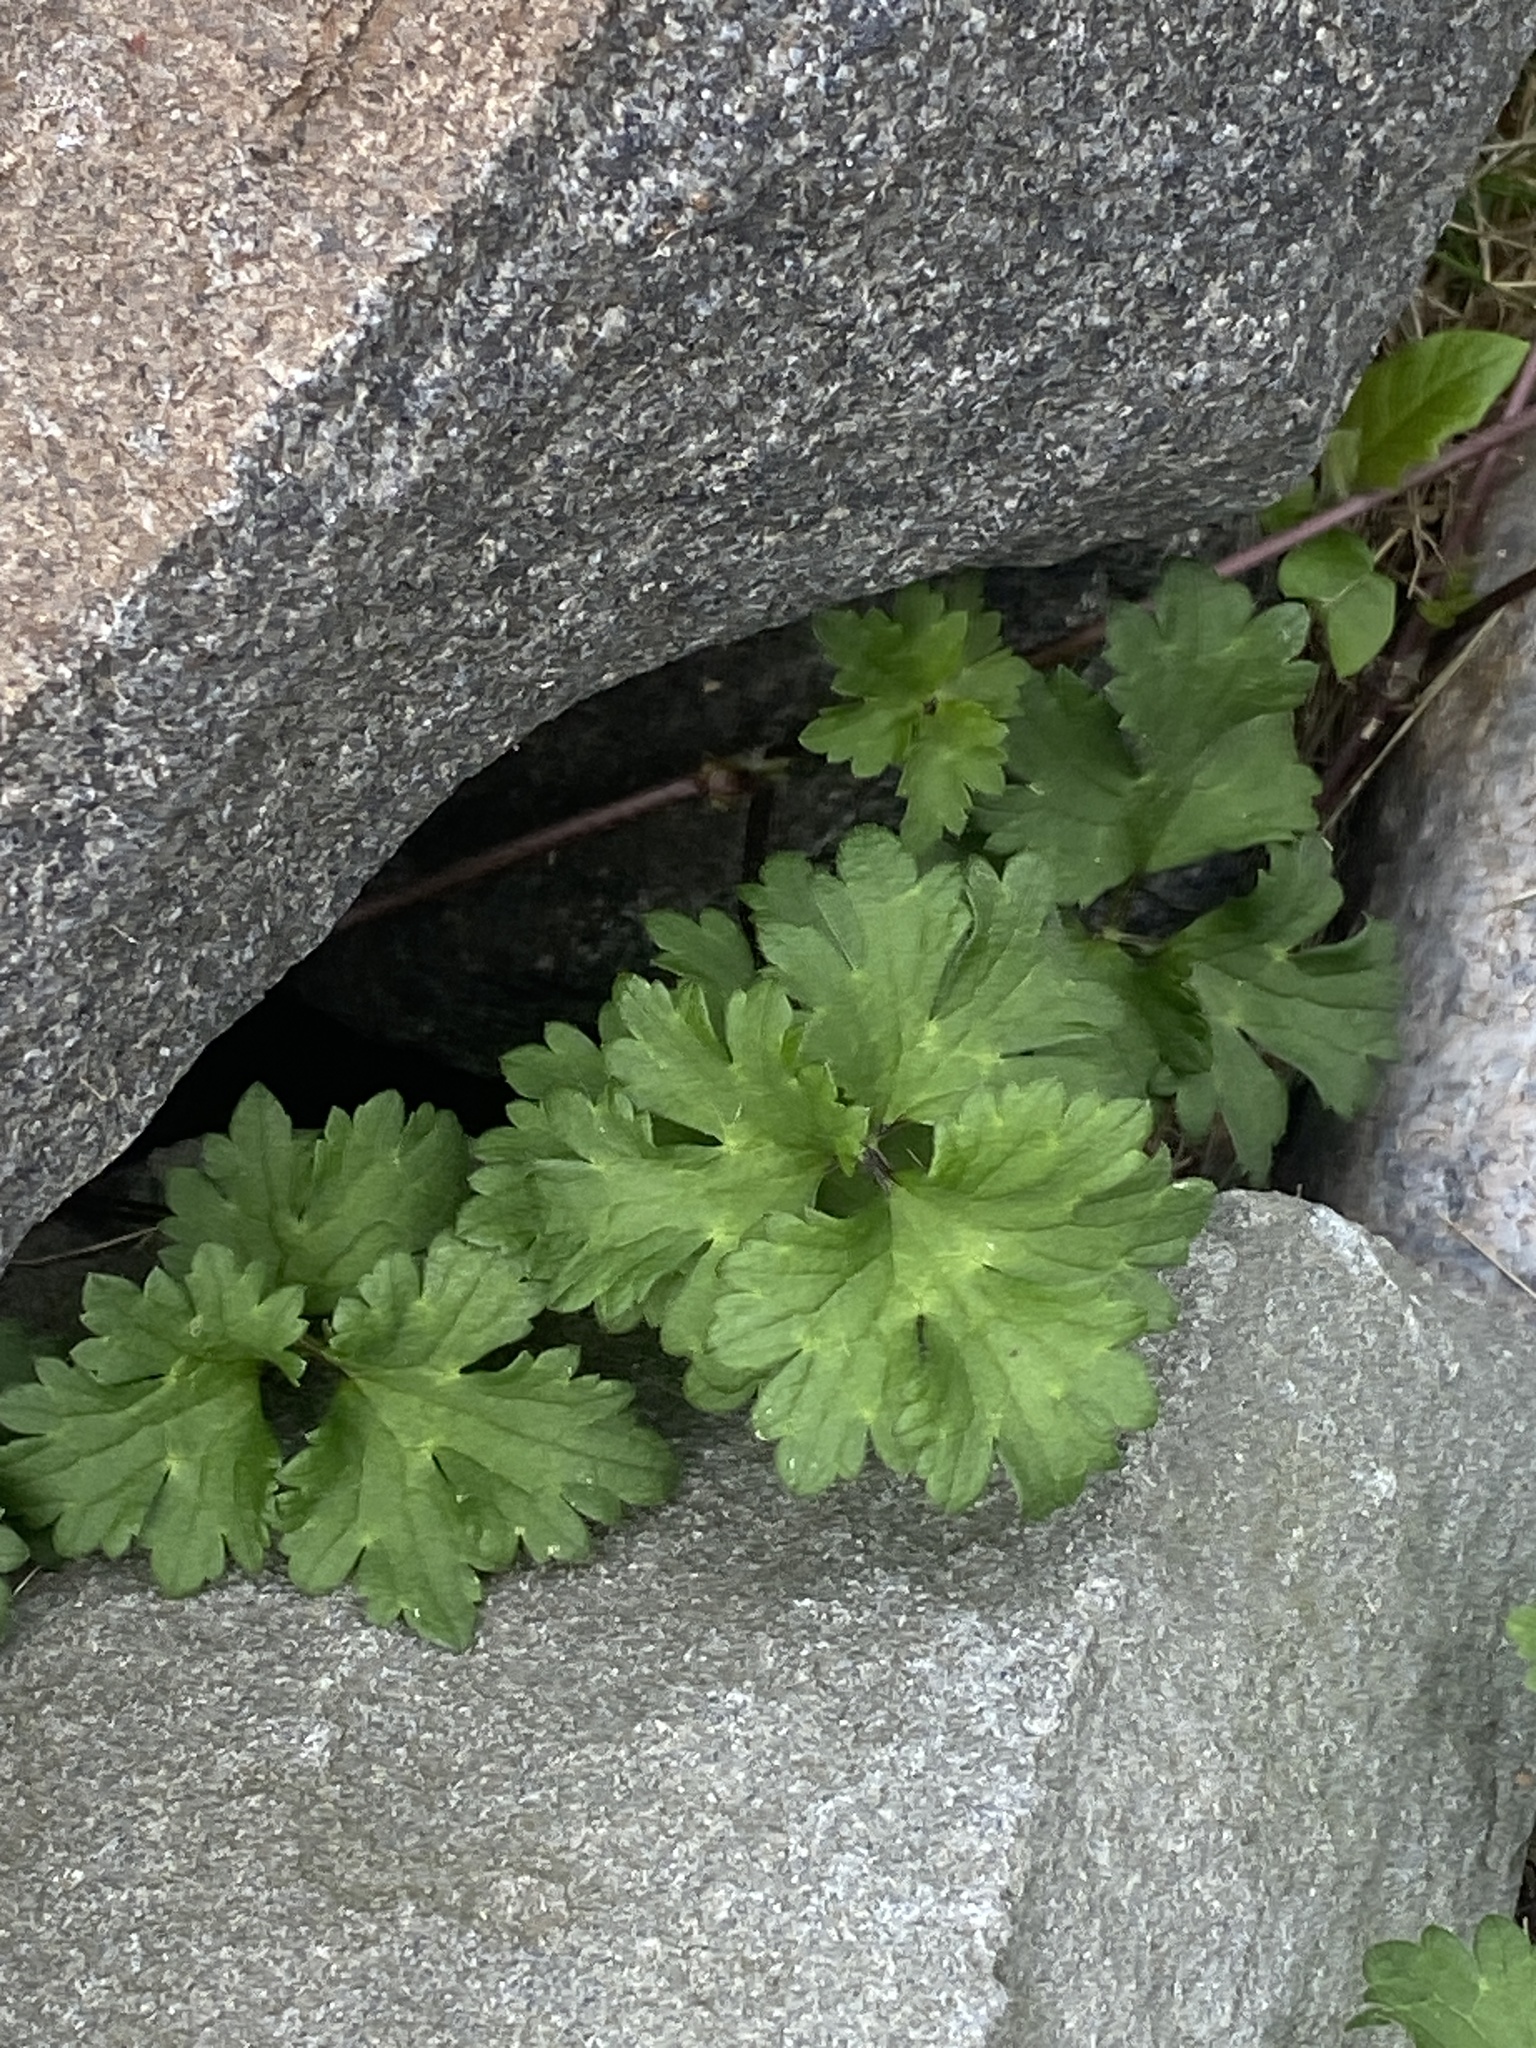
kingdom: Plantae
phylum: Tracheophyta
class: Magnoliopsida
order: Ranunculales
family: Ranunculaceae
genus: Ranunculus
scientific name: Ranunculus repens
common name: Creeping buttercup
